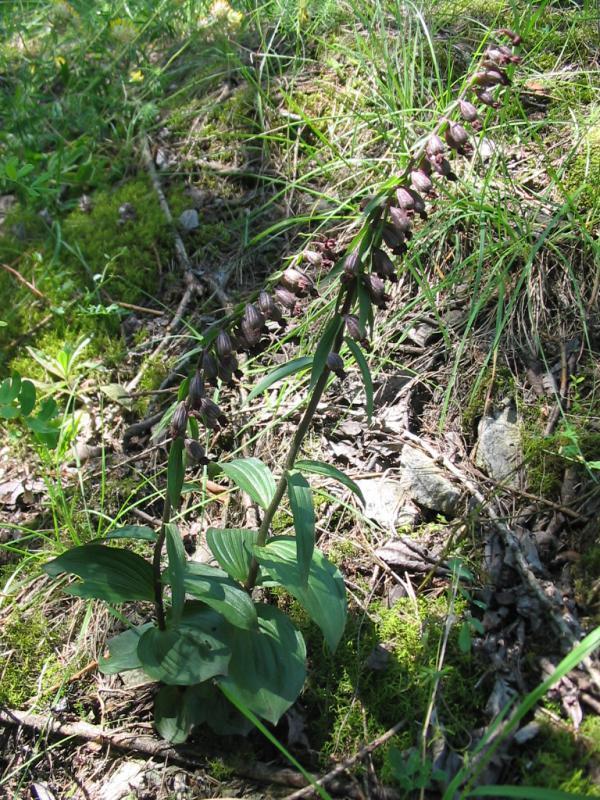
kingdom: Plantae
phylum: Tracheophyta
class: Liliopsida
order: Asparagales
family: Orchidaceae
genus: Epipactis
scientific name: Epipactis atrorubens
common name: Dark-red helleborine
